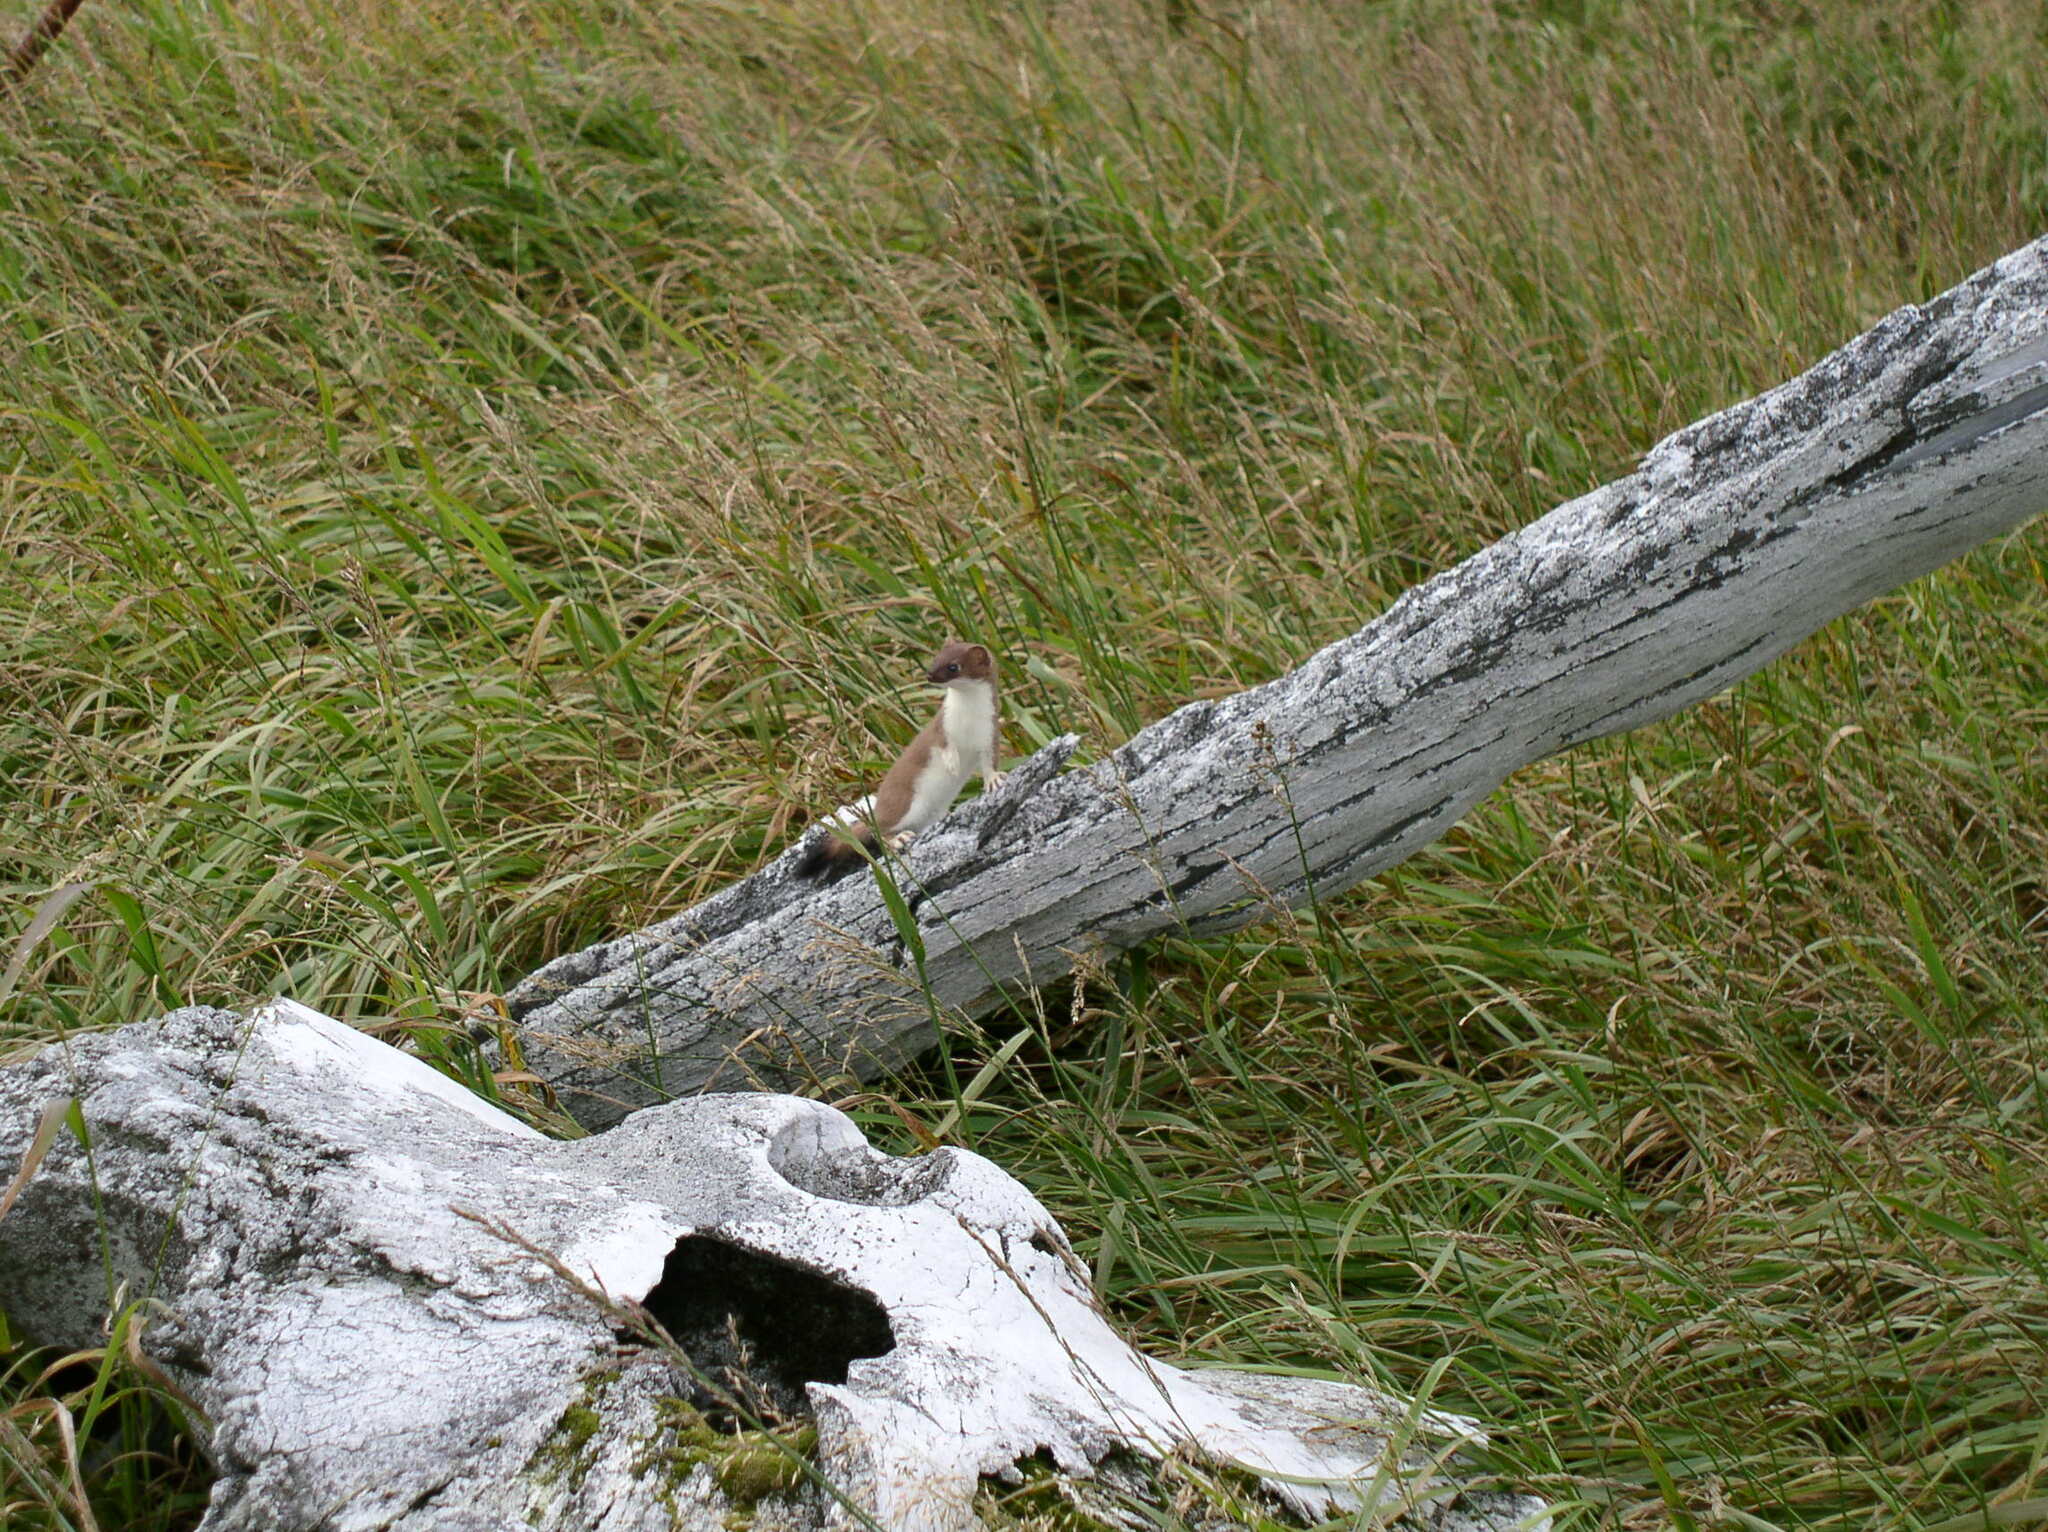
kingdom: Animalia
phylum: Chordata
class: Mammalia
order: Carnivora
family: Mustelidae
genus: Mustela
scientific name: Mustela erminea
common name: Stoat
